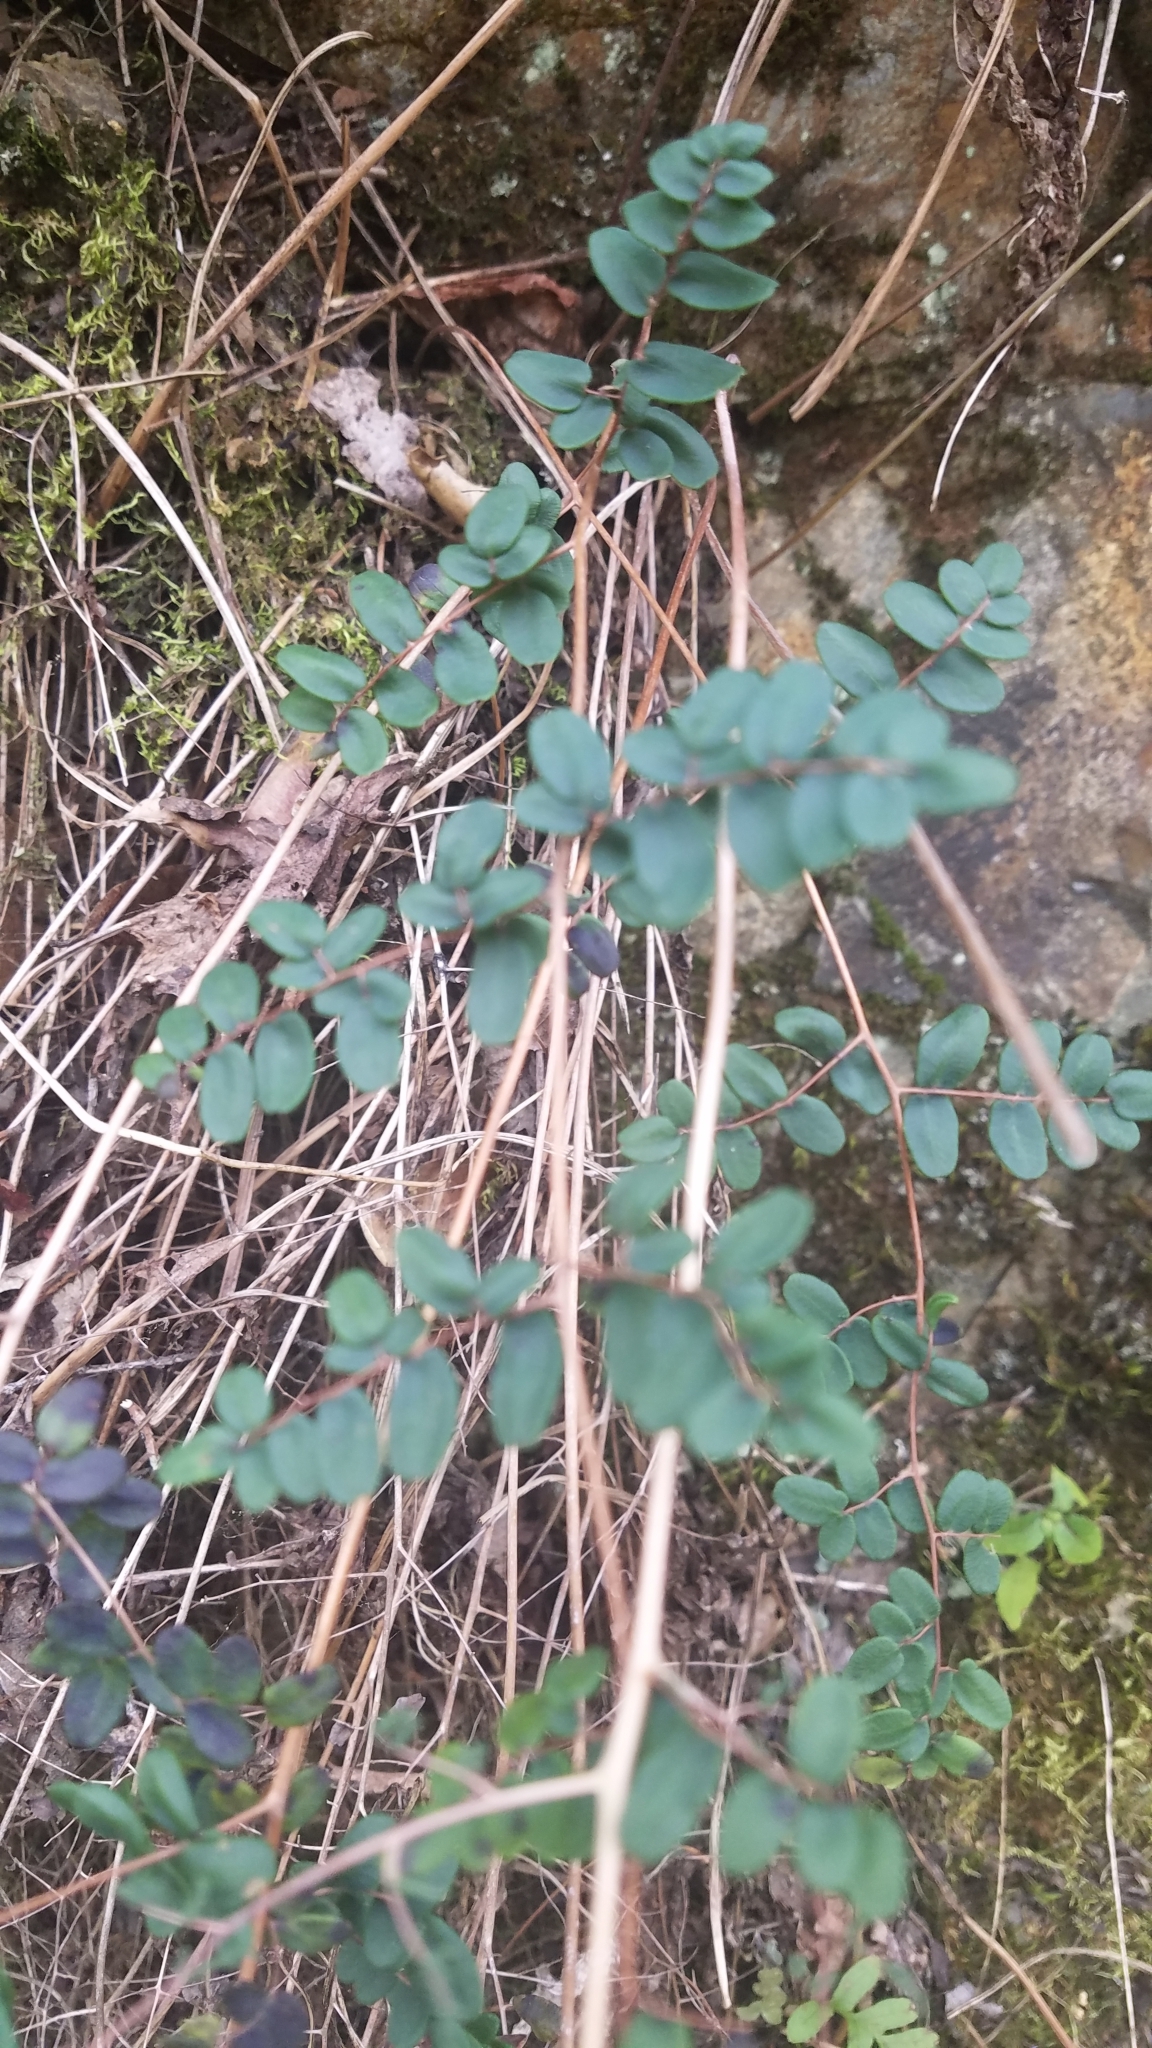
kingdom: Plantae
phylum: Tracheophyta
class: Polypodiopsida
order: Polypodiales
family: Pteridaceae
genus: Pellaea
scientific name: Pellaea andromedifolia
